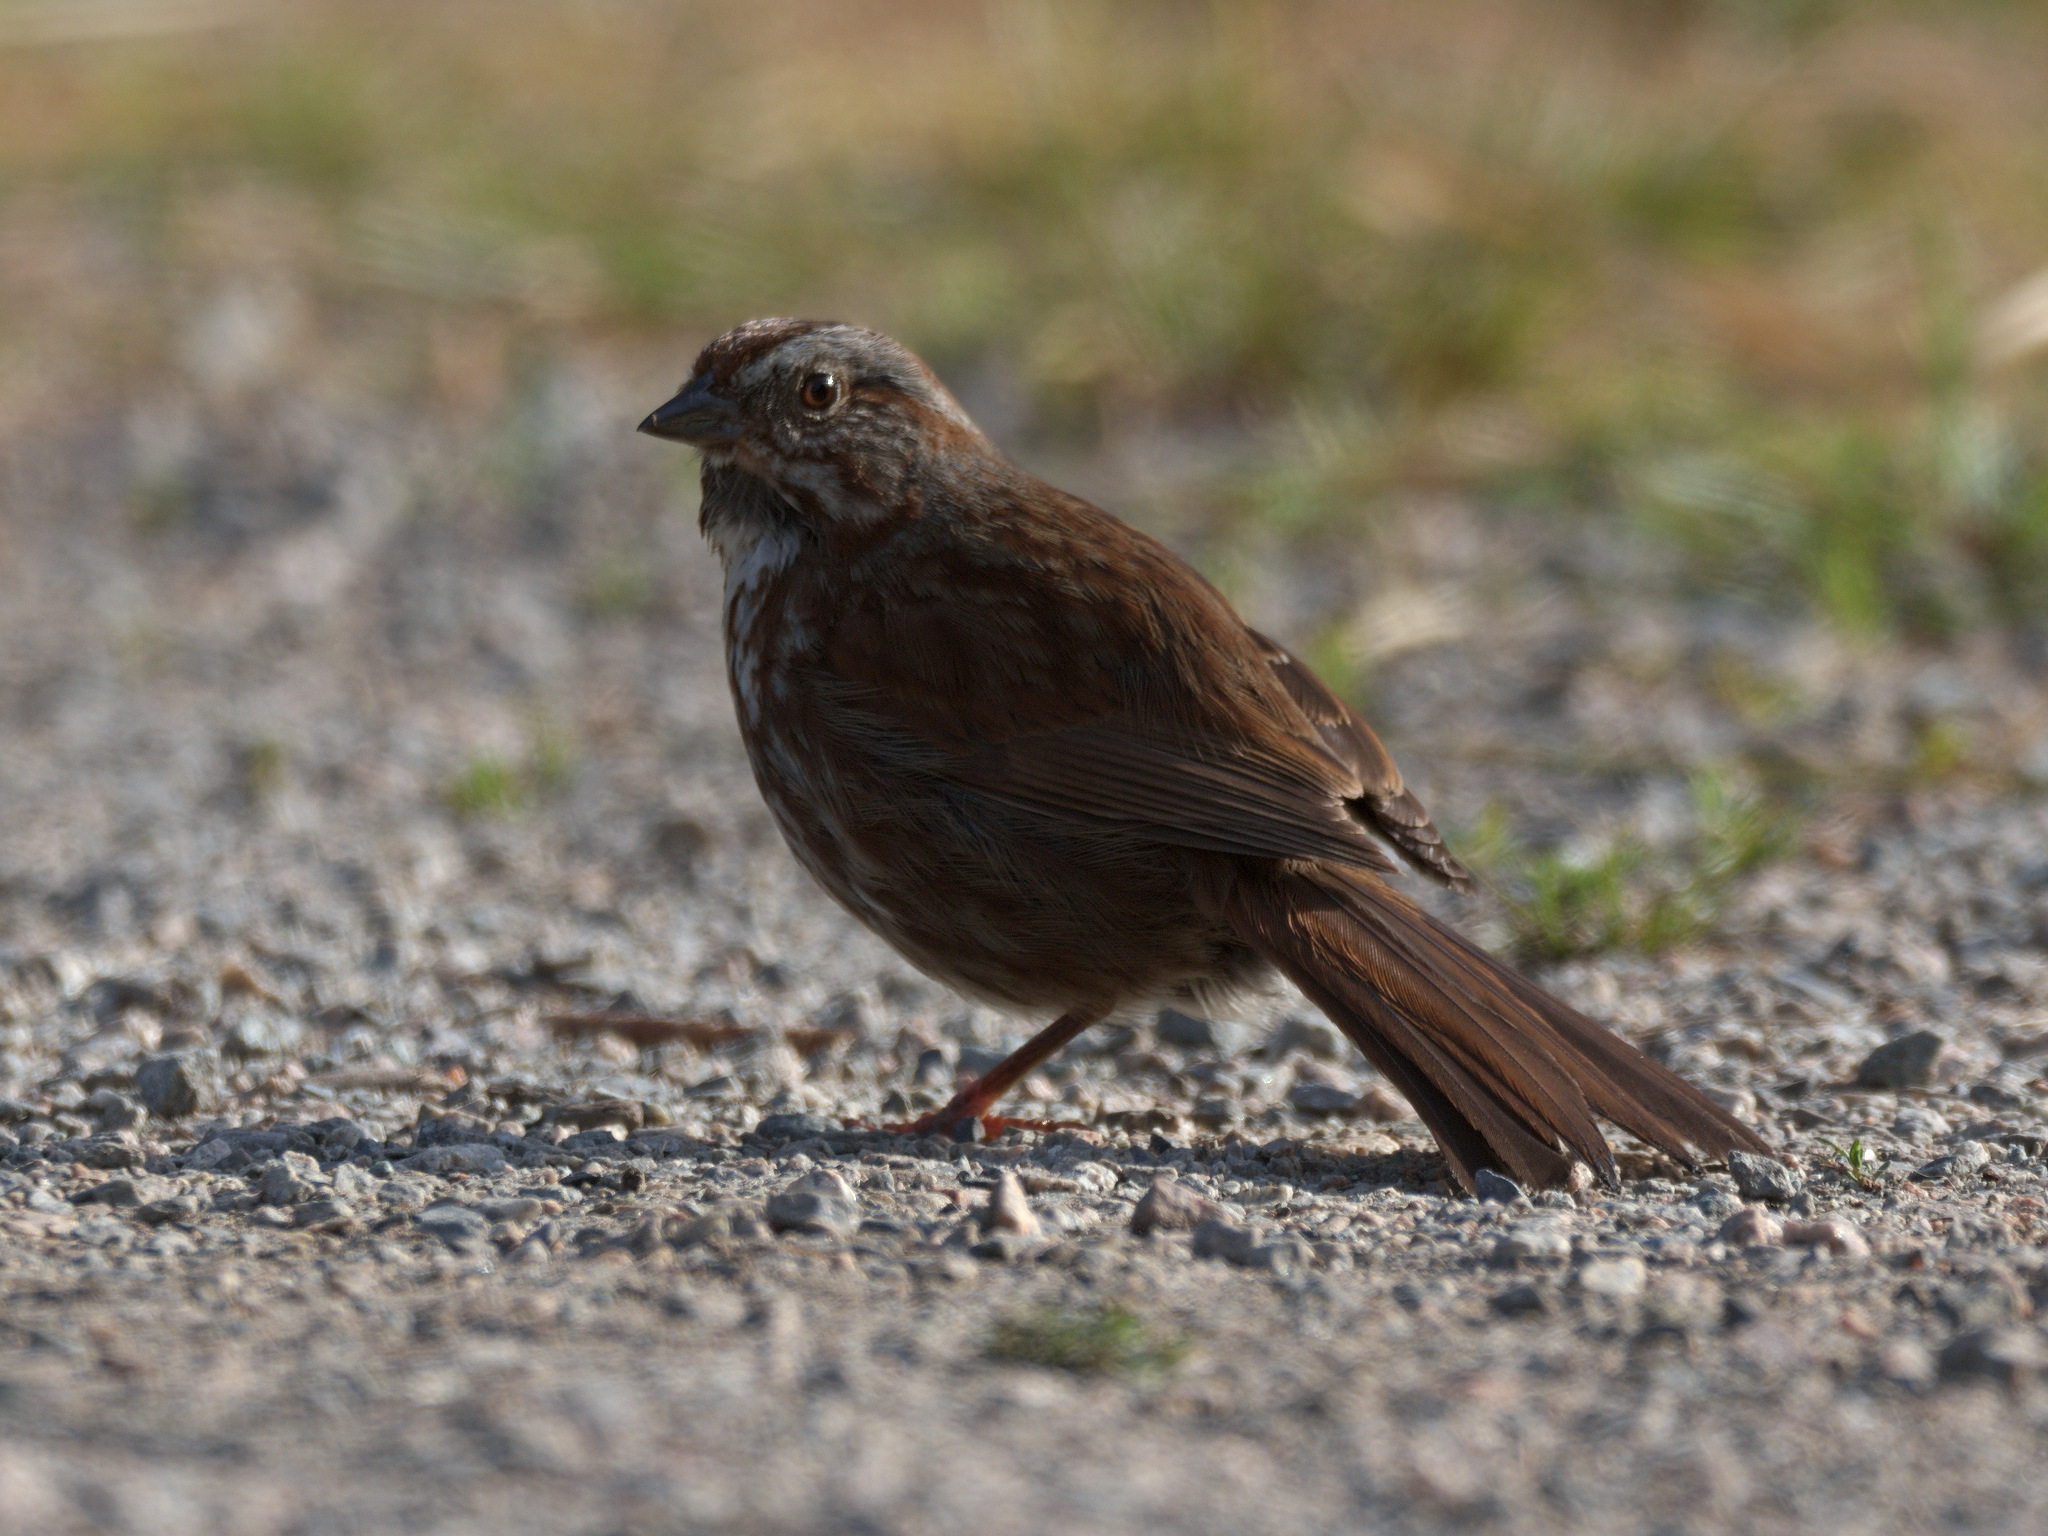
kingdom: Animalia
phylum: Chordata
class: Aves
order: Passeriformes
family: Passerellidae
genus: Melospiza
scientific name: Melospiza melodia
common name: Song sparrow
